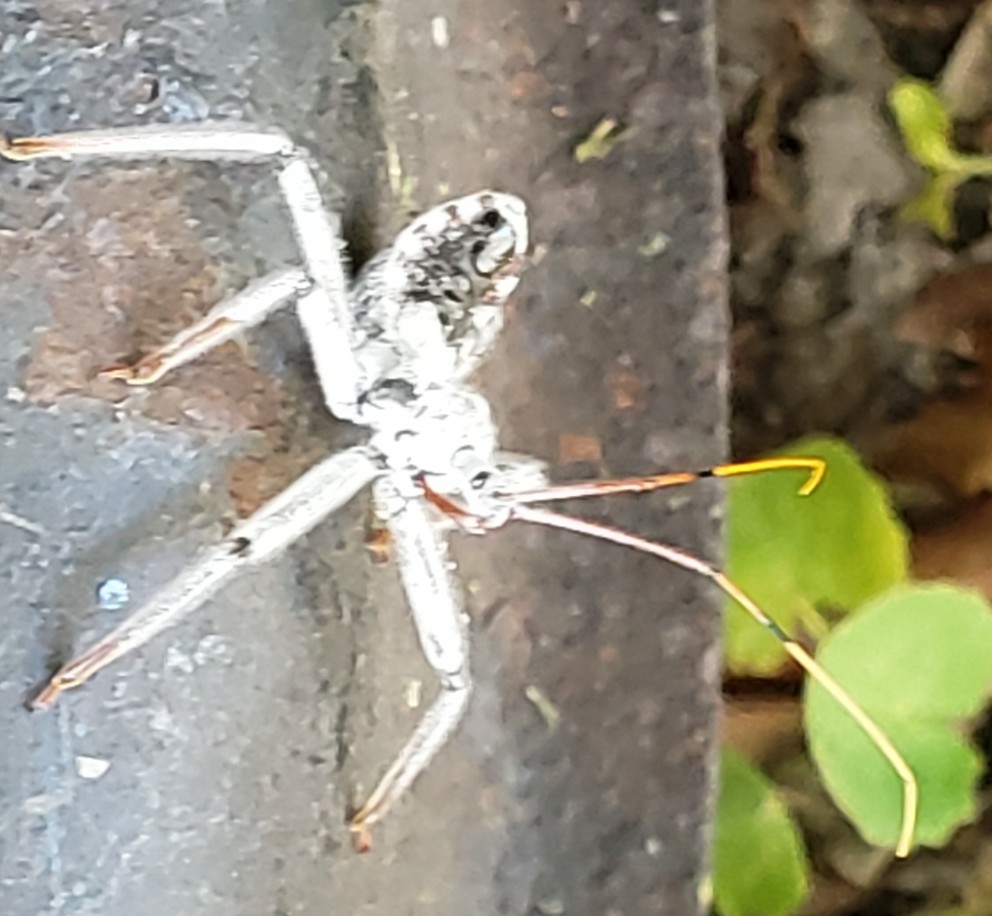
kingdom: Animalia
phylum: Arthropoda
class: Insecta
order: Hemiptera
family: Reduviidae
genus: Arilus
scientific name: Arilus cristatus
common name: North american wheel bug
